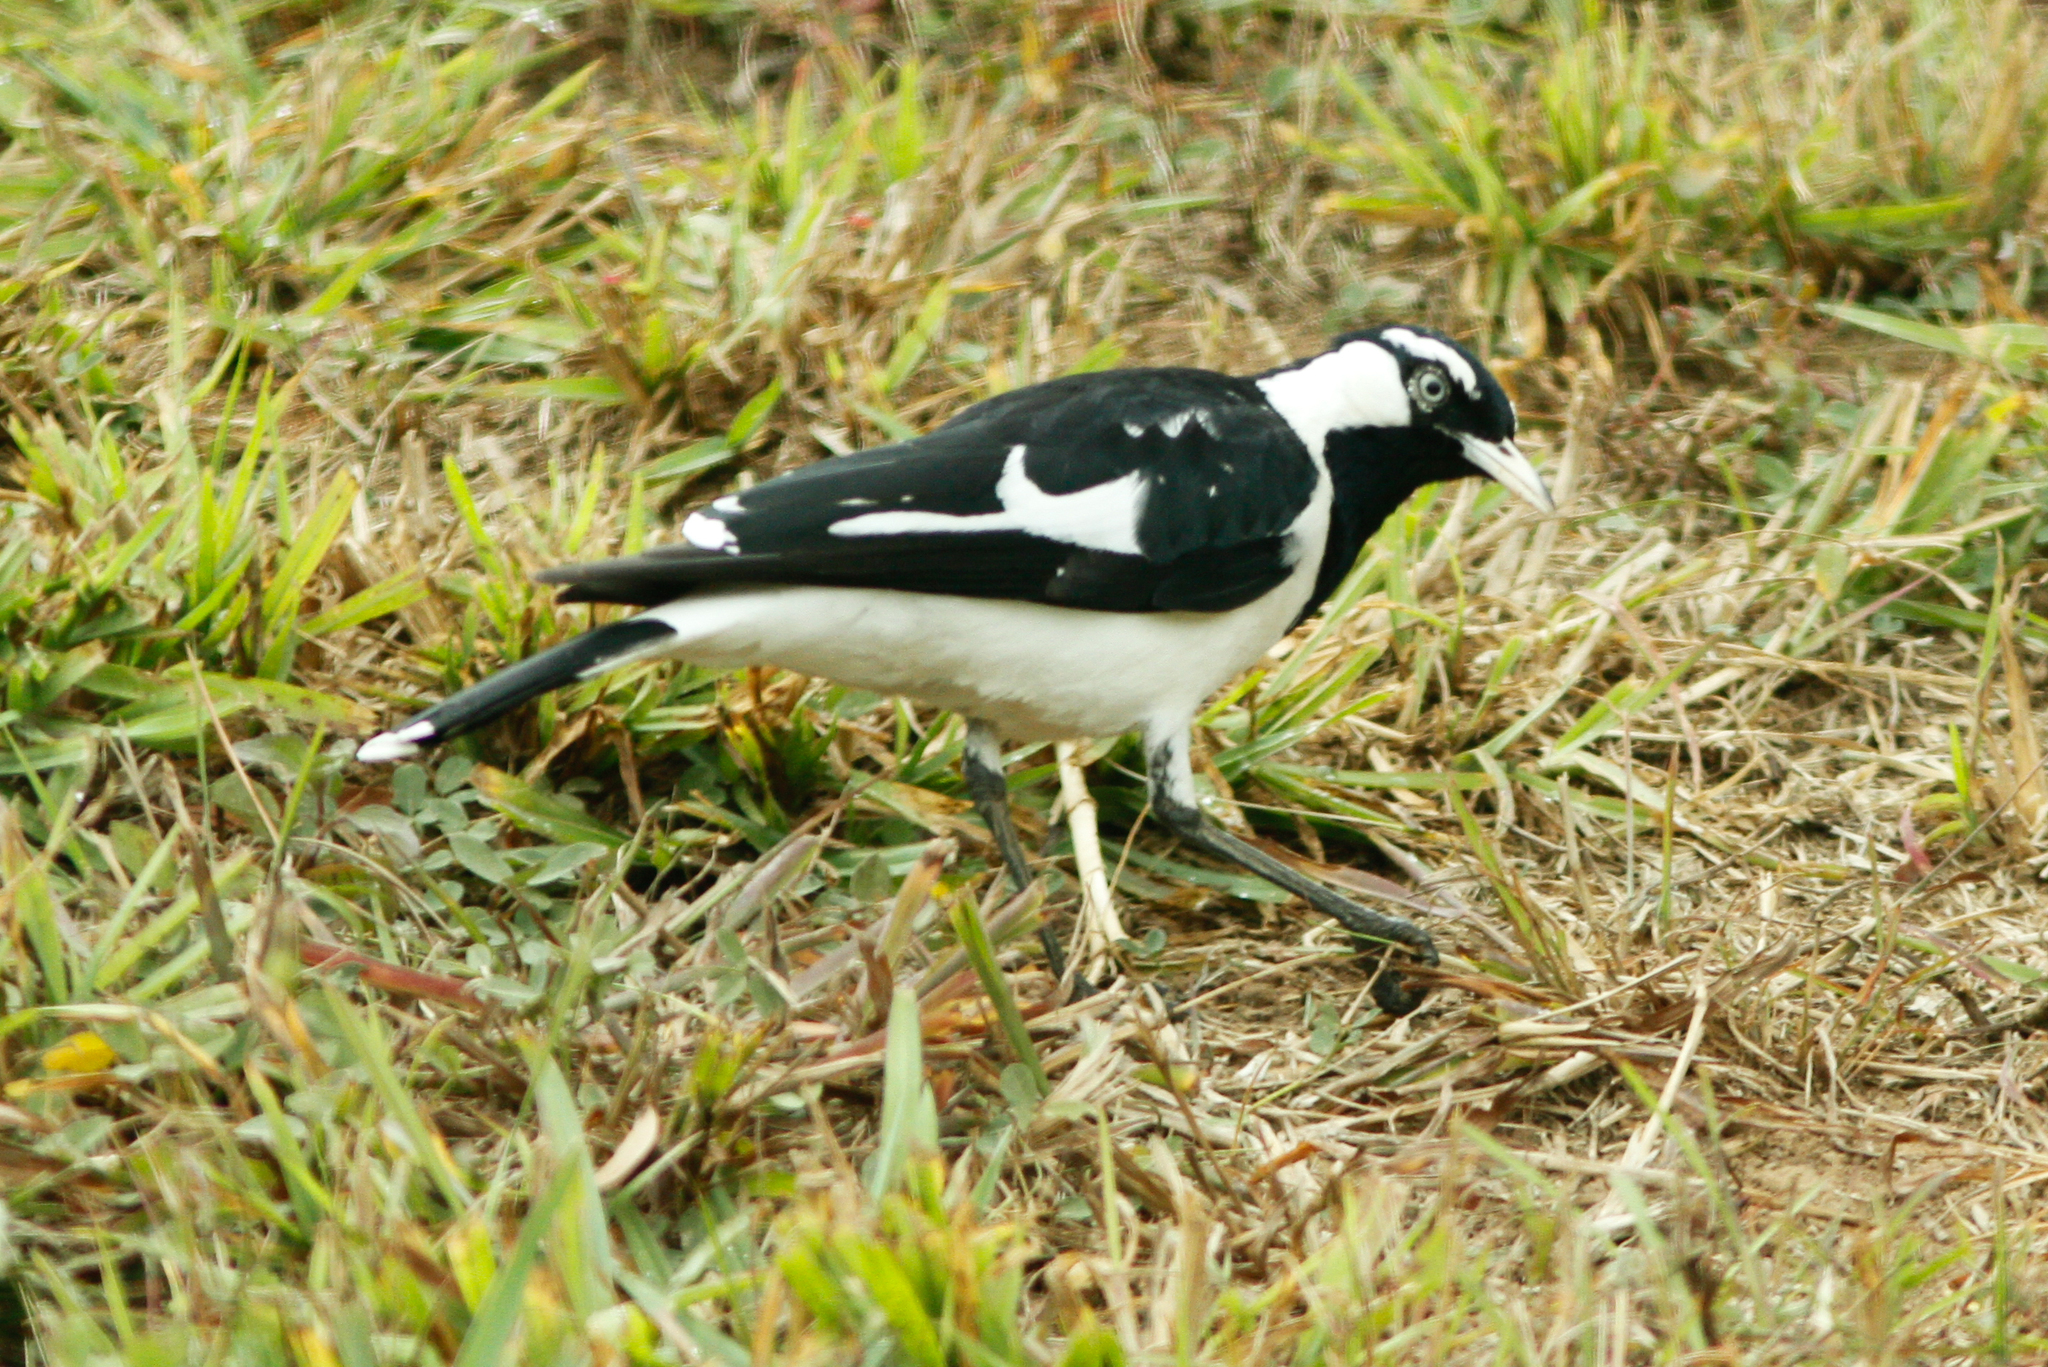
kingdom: Animalia
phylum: Chordata
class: Aves
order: Passeriformes
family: Monarchidae
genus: Grallina
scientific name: Grallina cyanoleuca
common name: Magpie-lark
